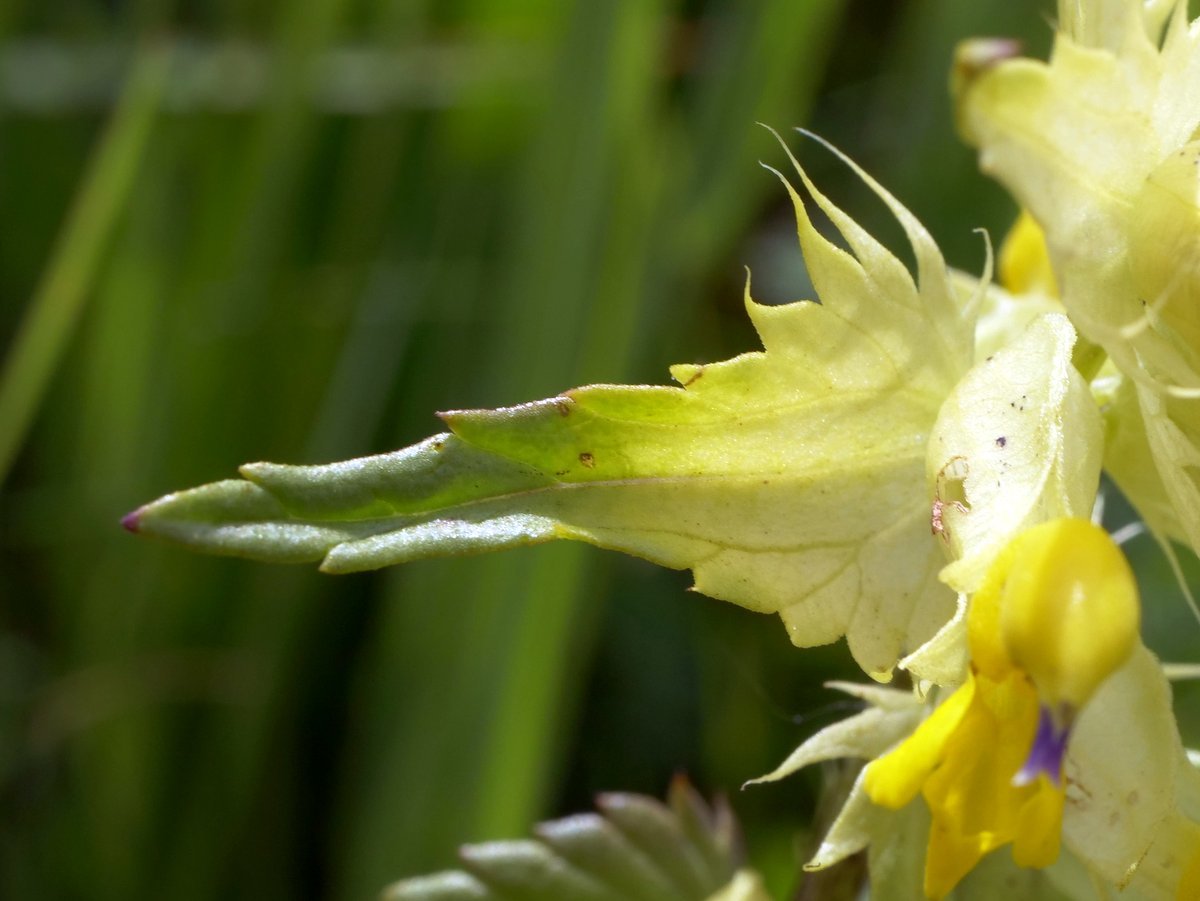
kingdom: Plantae
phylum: Tracheophyta
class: Magnoliopsida
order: Lamiales
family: Orobanchaceae
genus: Rhinanthus
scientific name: Rhinanthus glacialis
